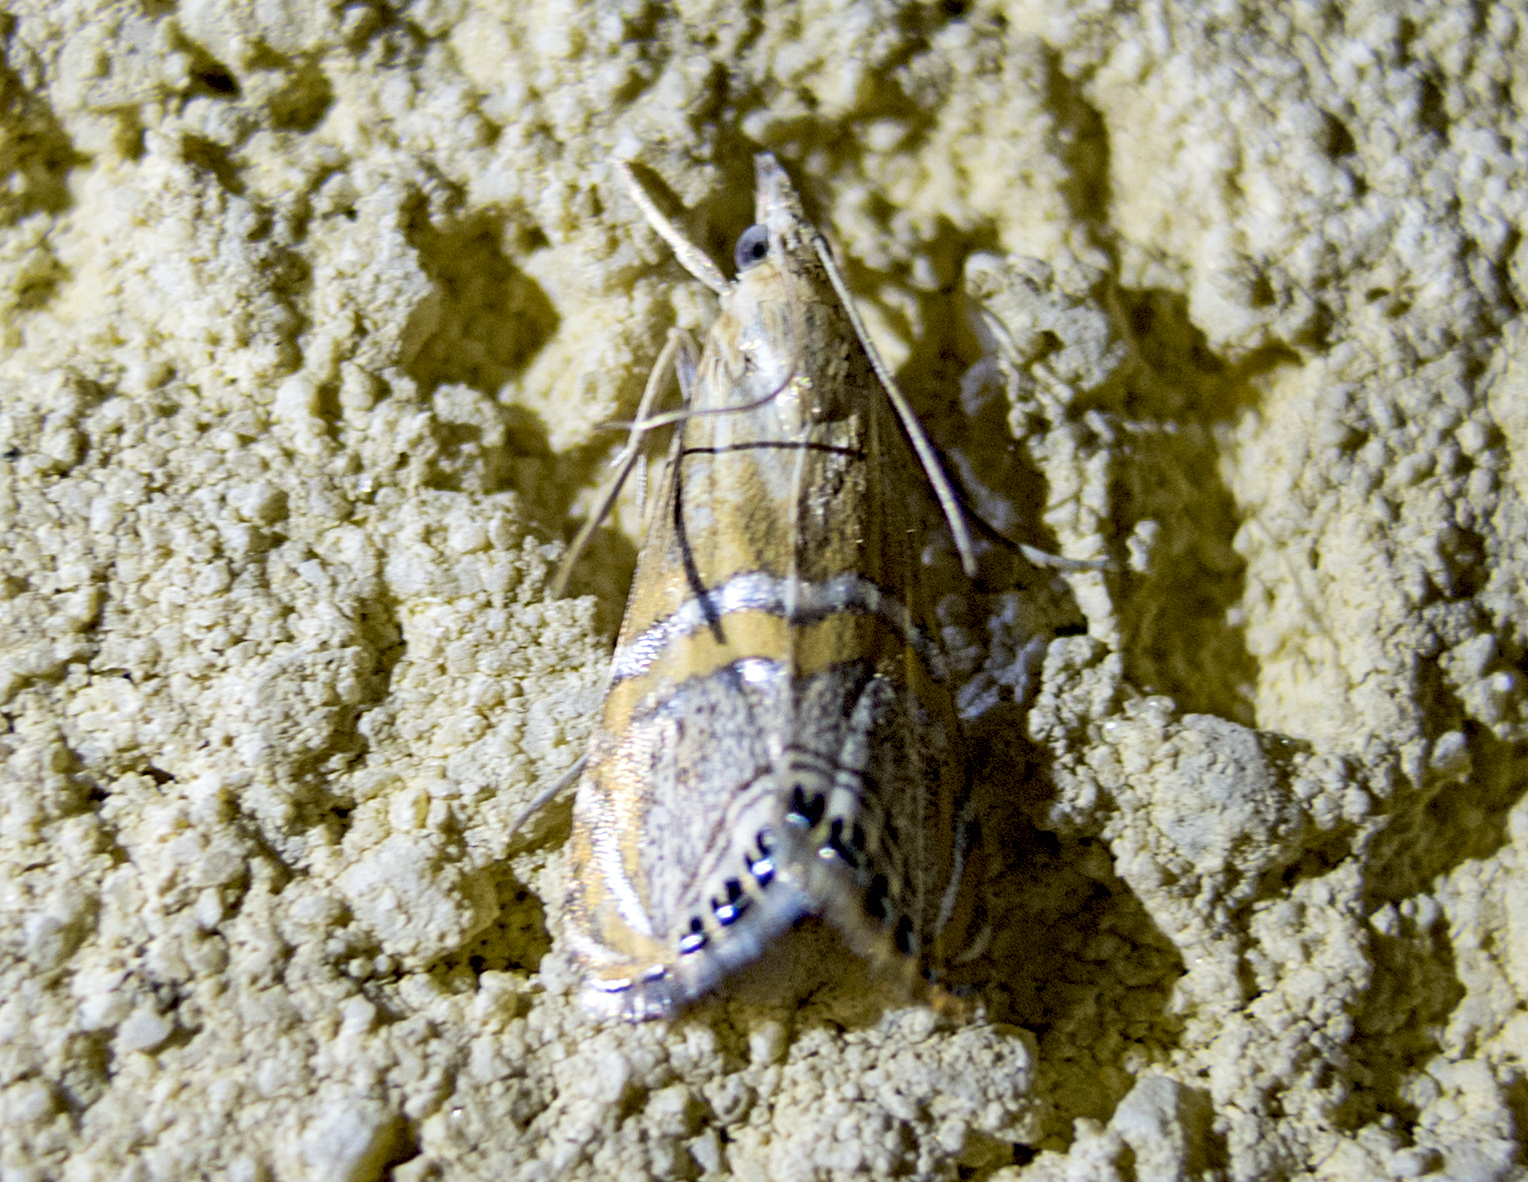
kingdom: Animalia
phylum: Arthropoda
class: Insecta
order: Lepidoptera
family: Crambidae
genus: Euchromius
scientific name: Euchromius bella
